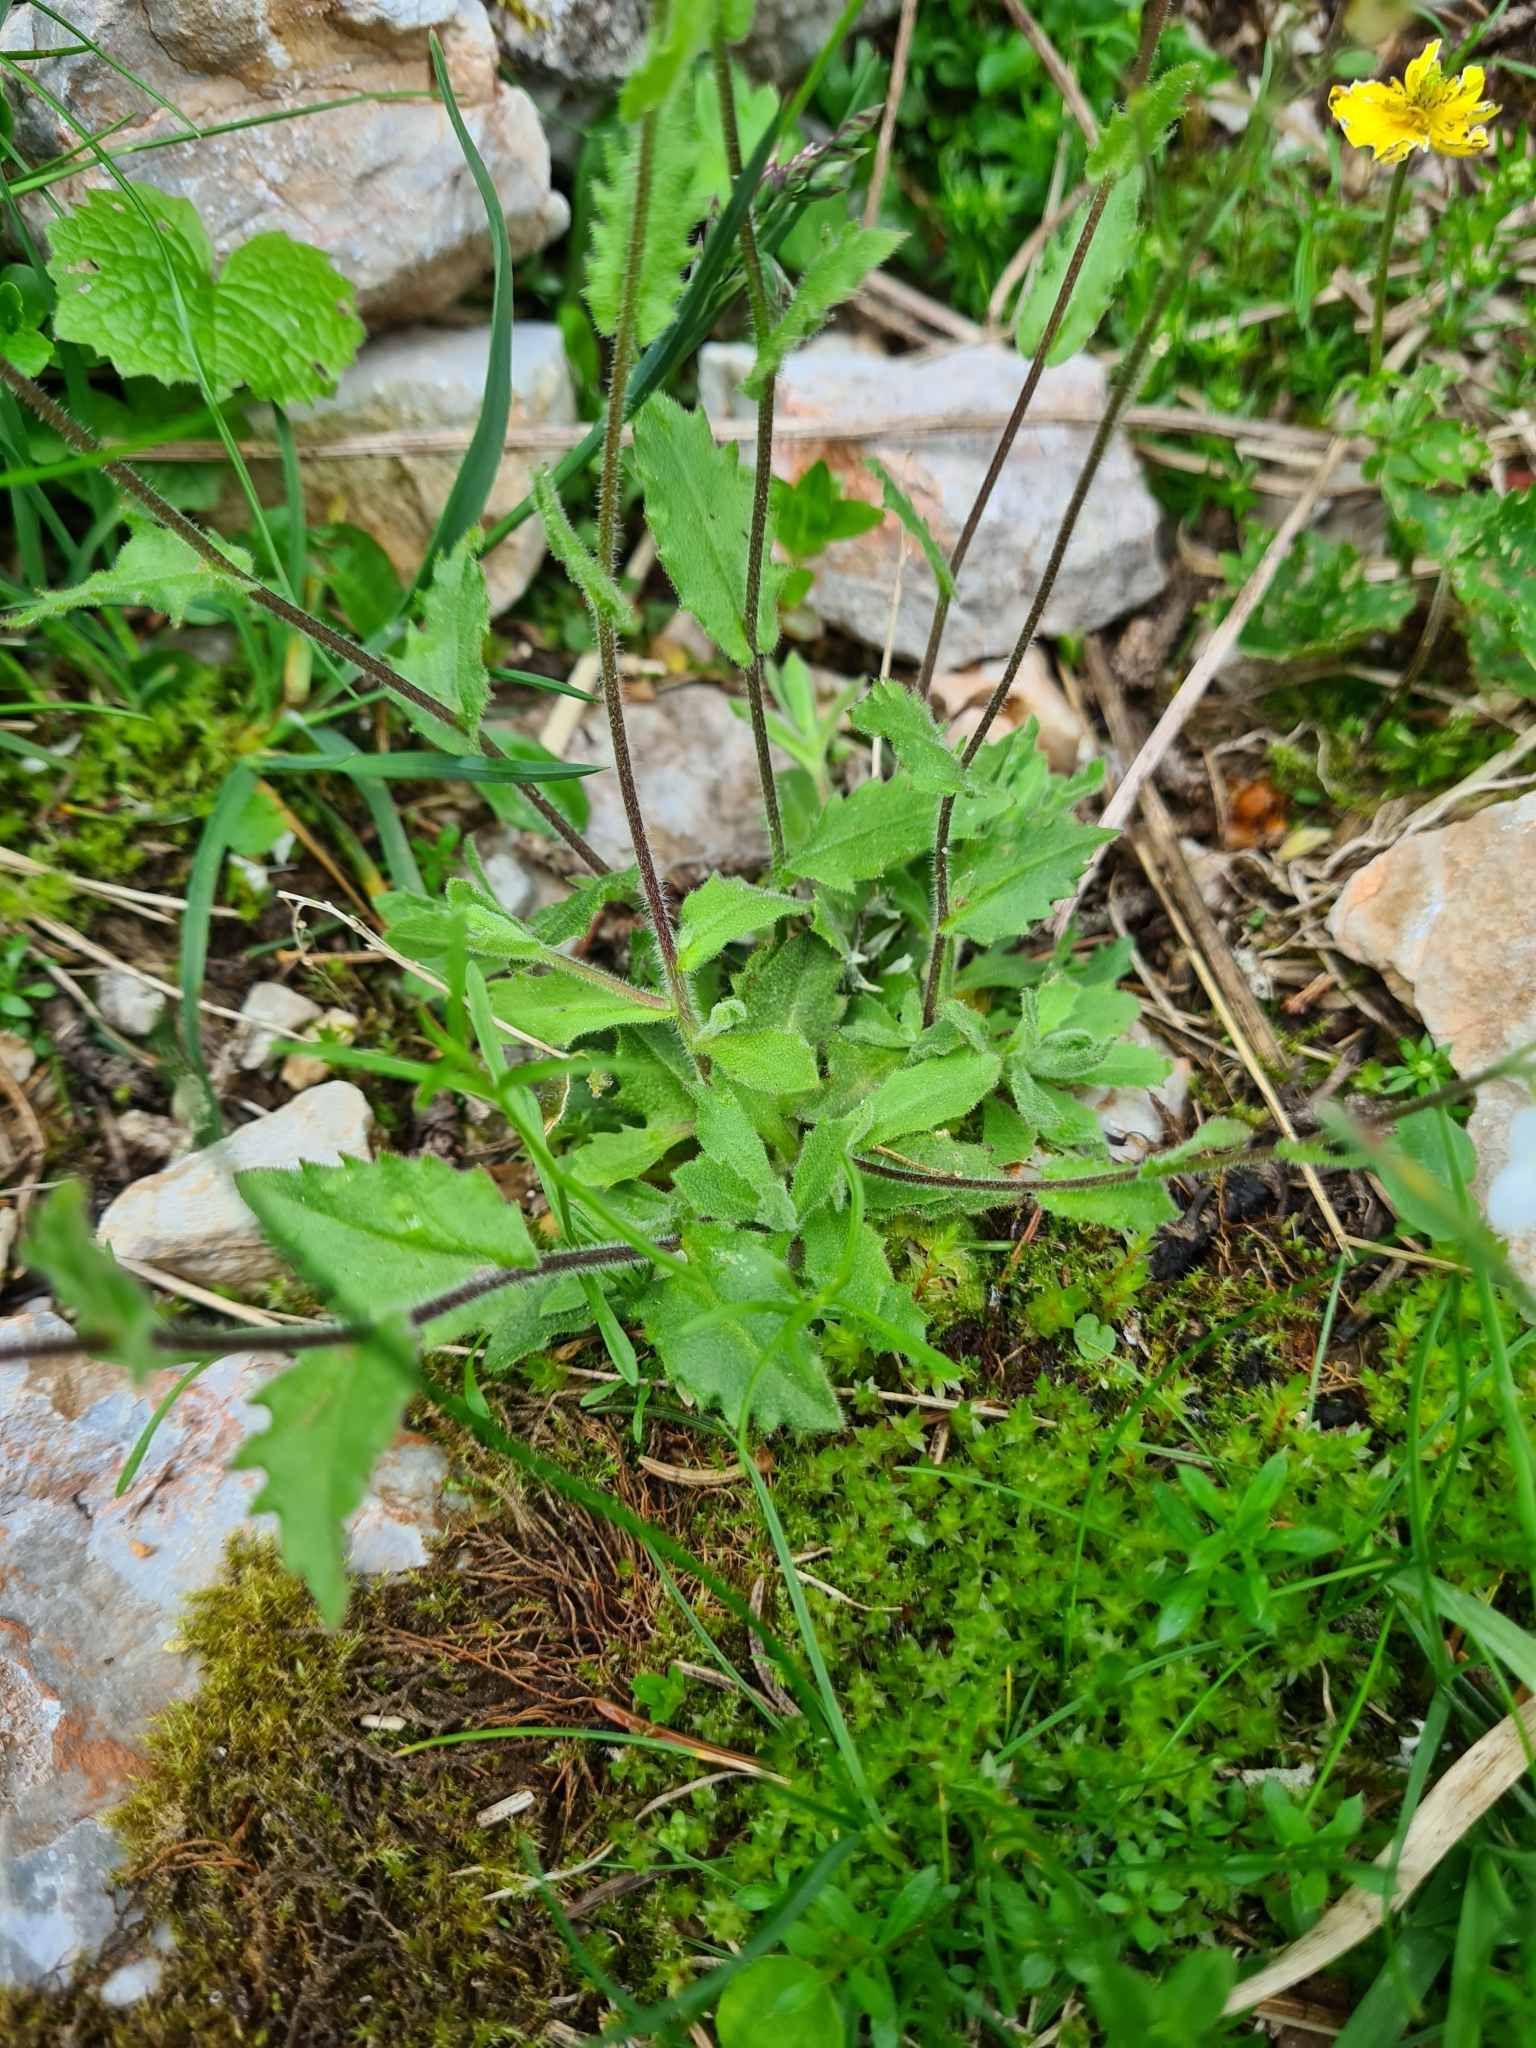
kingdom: Plantae
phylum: Tracheophyta
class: Magnoliopsida
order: Brassicales
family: Brassicaceae
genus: Arabis
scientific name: Arabis alpina
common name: Alpine rock-cress
